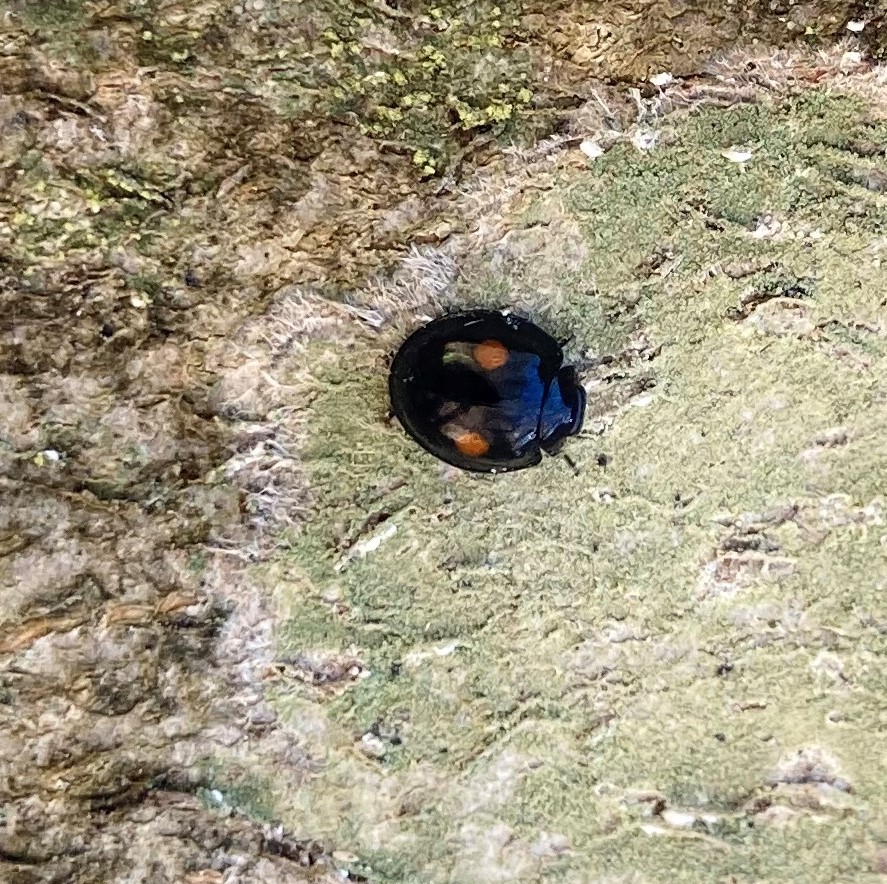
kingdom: Animalia
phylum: Arthropoda
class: Insecta
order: Coleoptera
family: Coccinellidae
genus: Chilocorus
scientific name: Chilocorus stigma
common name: Twicestabbed lady beetle
